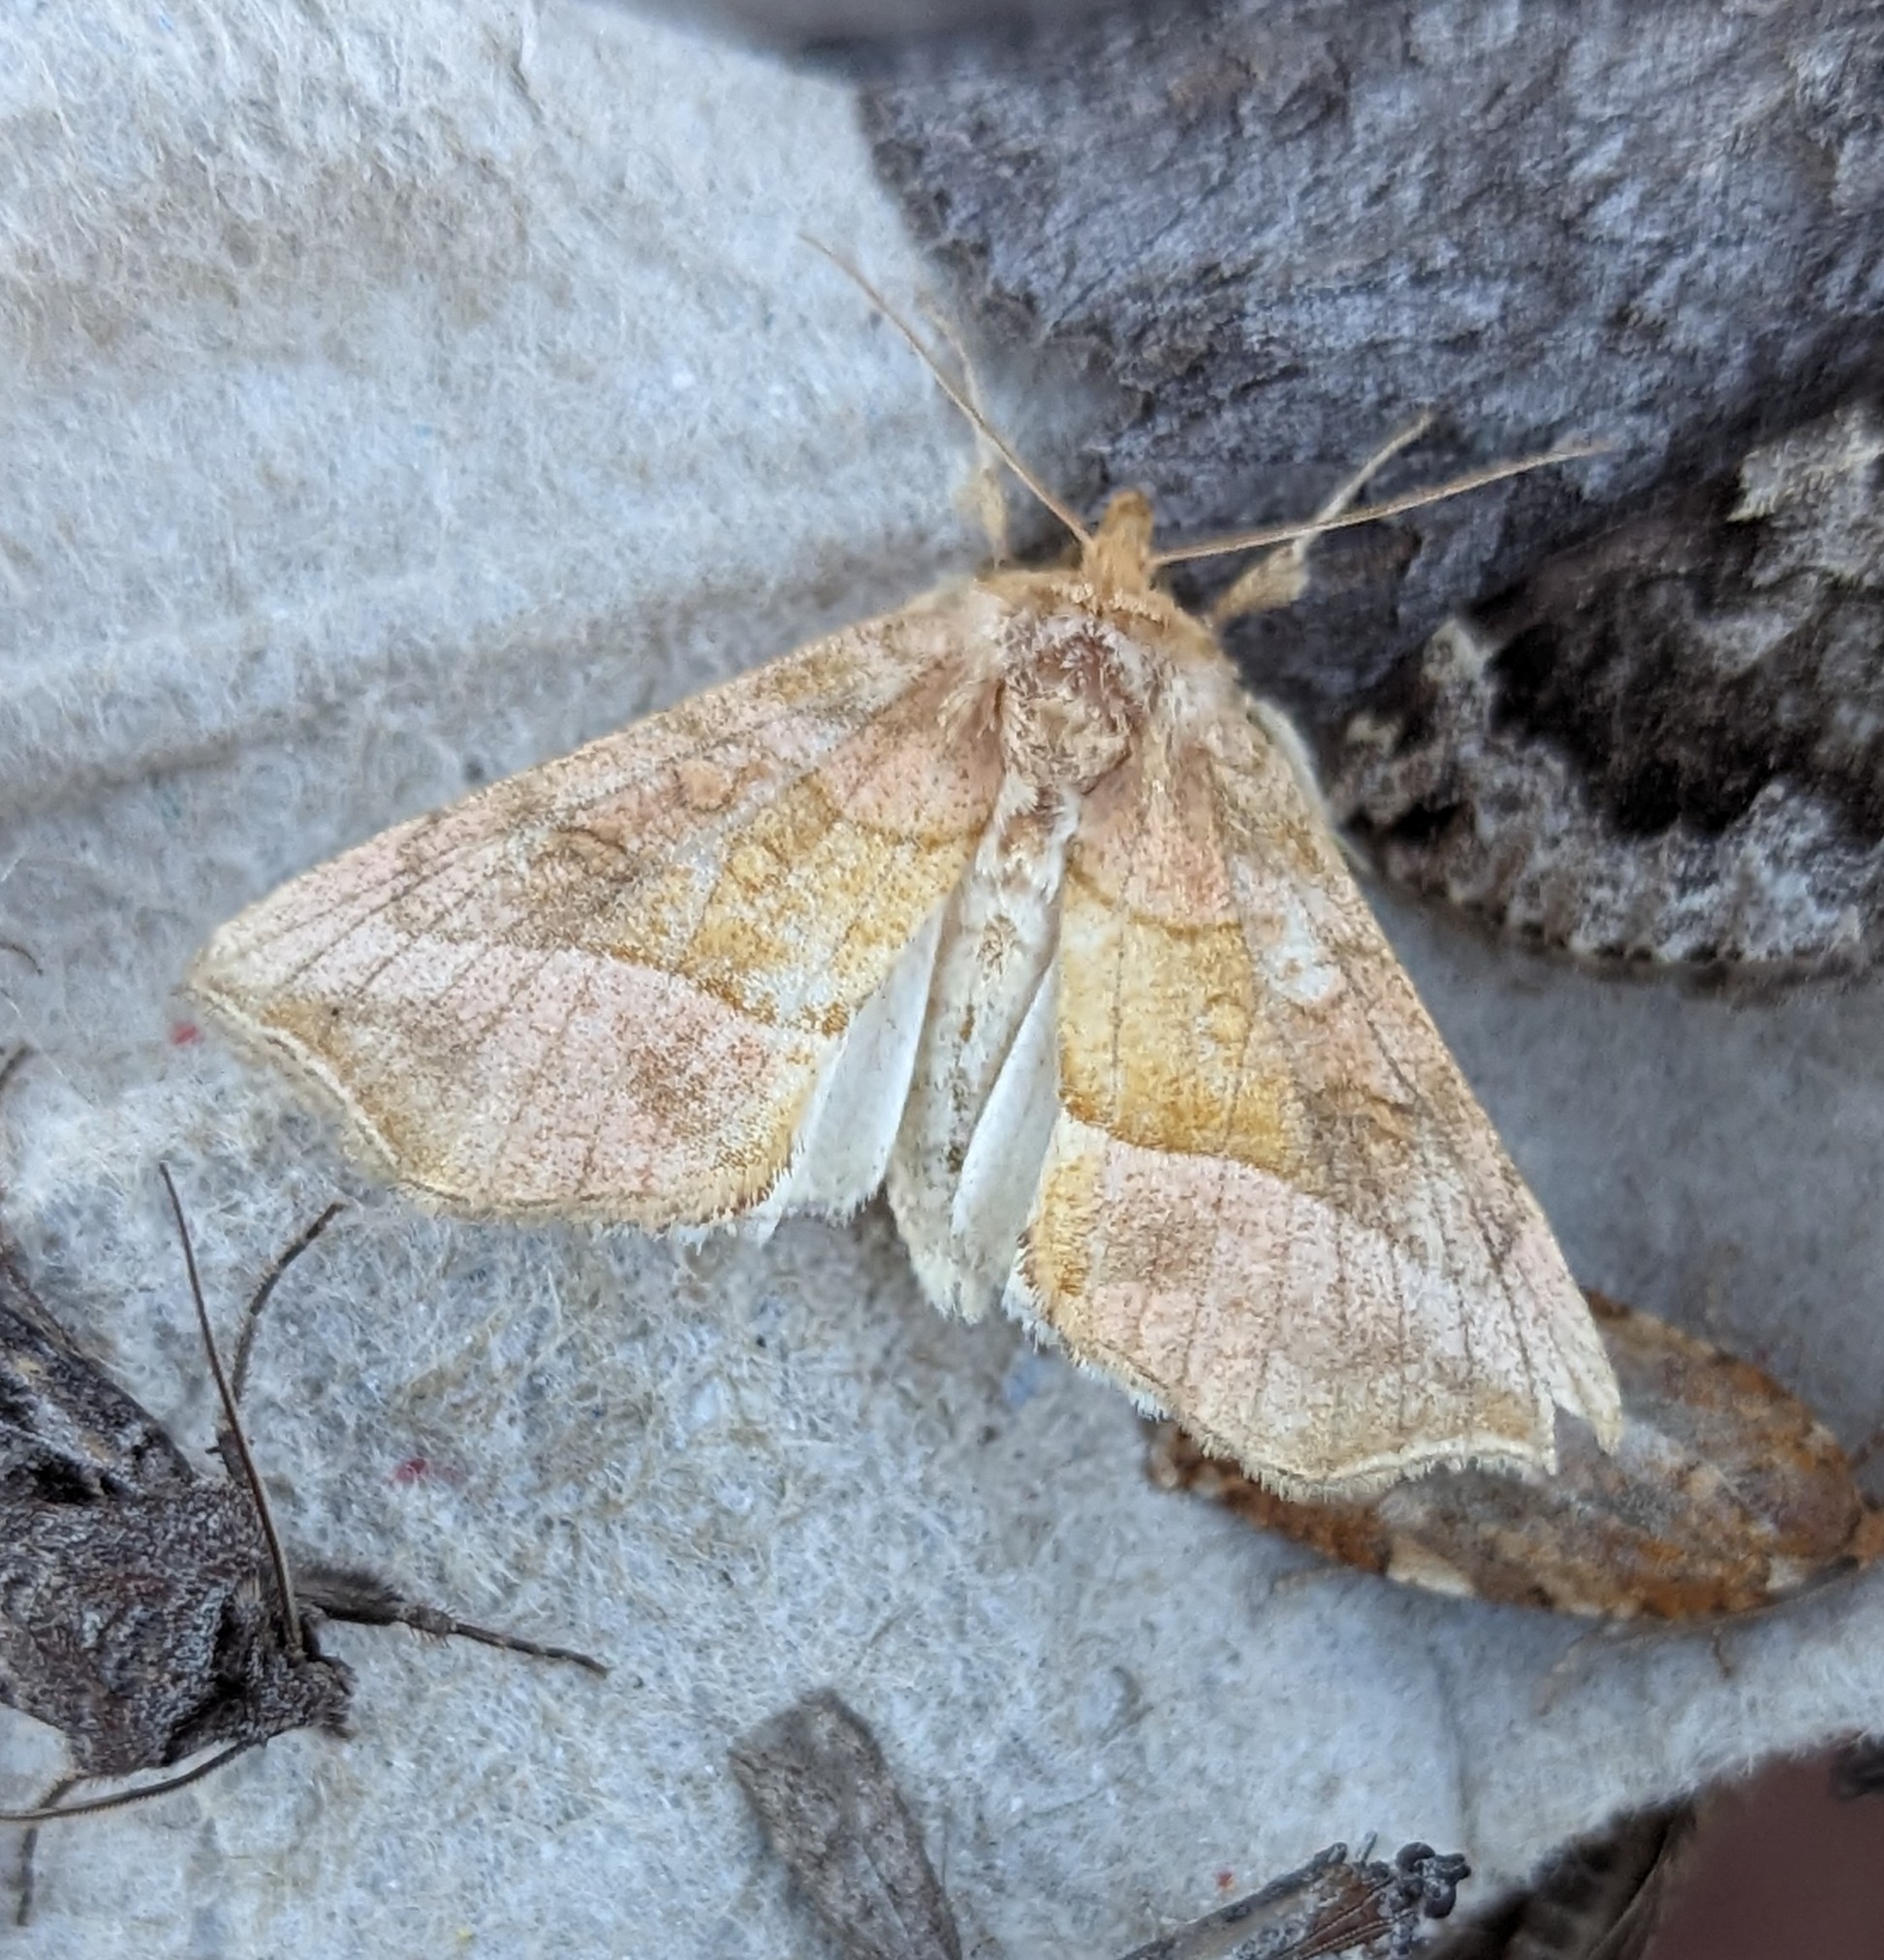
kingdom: Animalia
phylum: Arthropoda
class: Insecta
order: Lepidoptera
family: Noctuidae
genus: Diachrysia
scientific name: Diachrysia aereoides
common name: Dark-spotted looper moth
